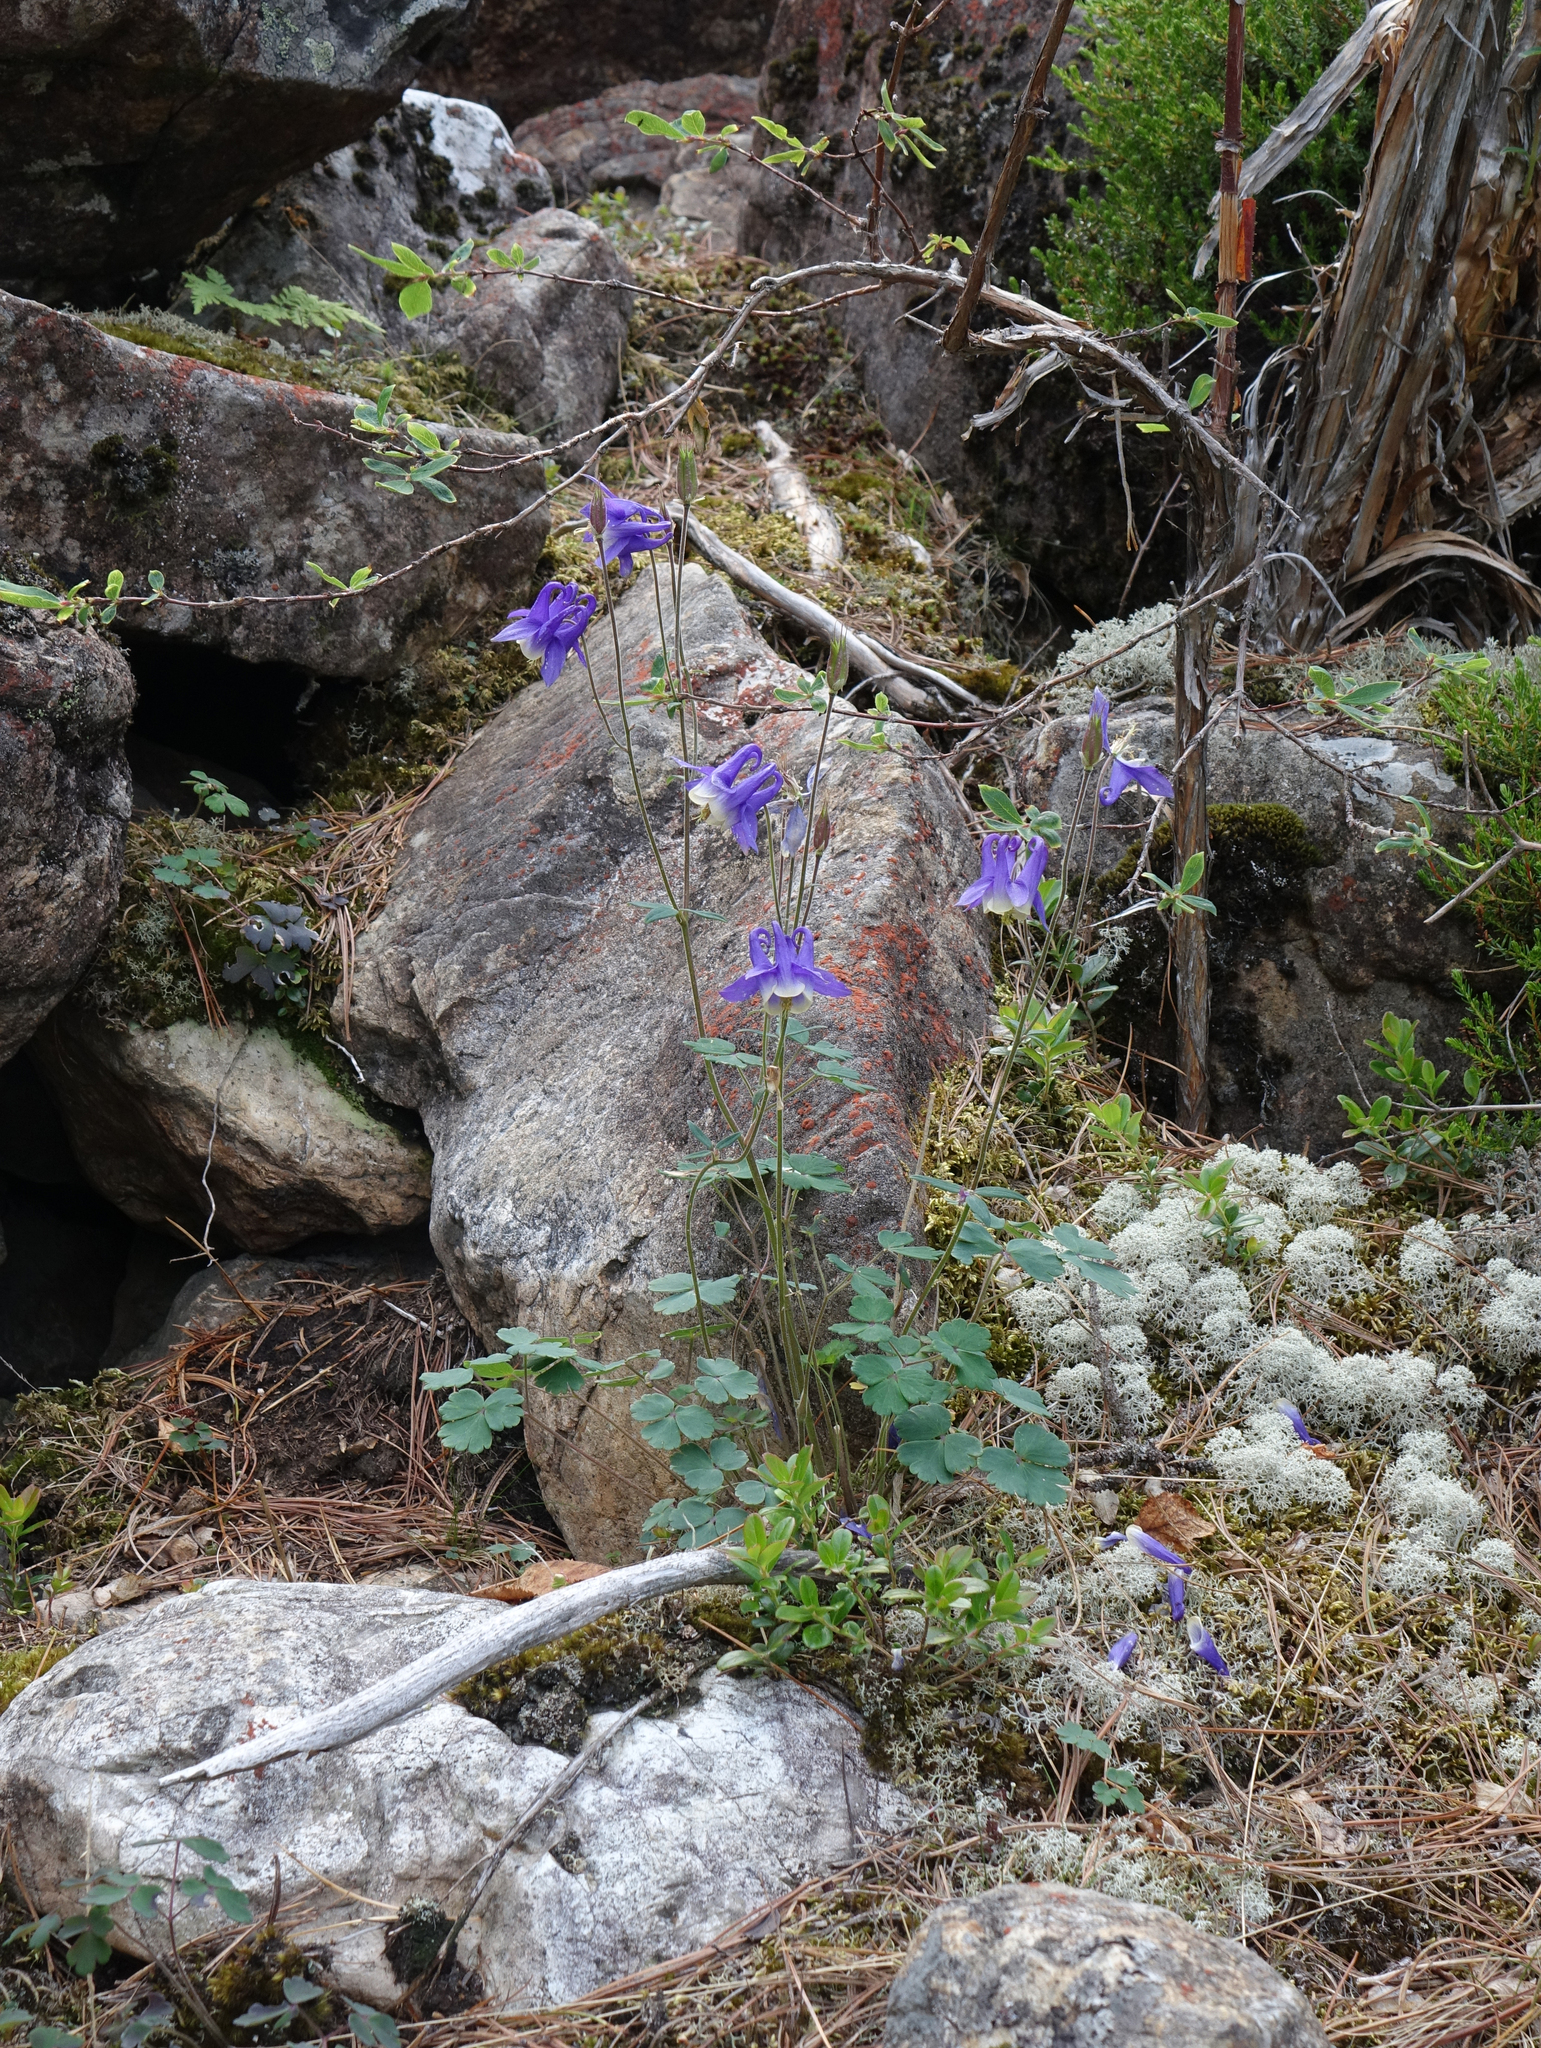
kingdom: Plantae
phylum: Tracheophyta
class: Magnoliopsida
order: Ranunculales
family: Ranunculaceae
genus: Aquilegia
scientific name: Aquilegia sibirica
